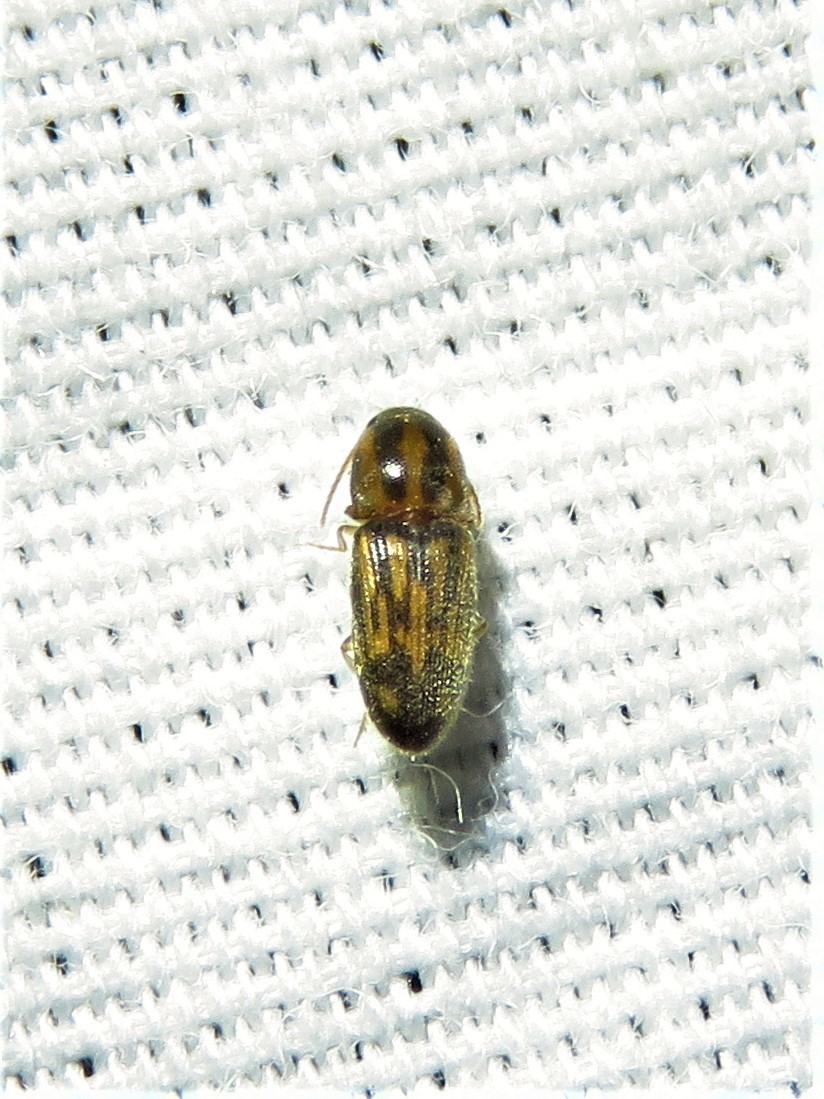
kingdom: Animalia
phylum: Arthropoda
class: Insecta
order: Coleoptera
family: Elateridae
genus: Monocrepidius
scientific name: Monocrepidius bellus
